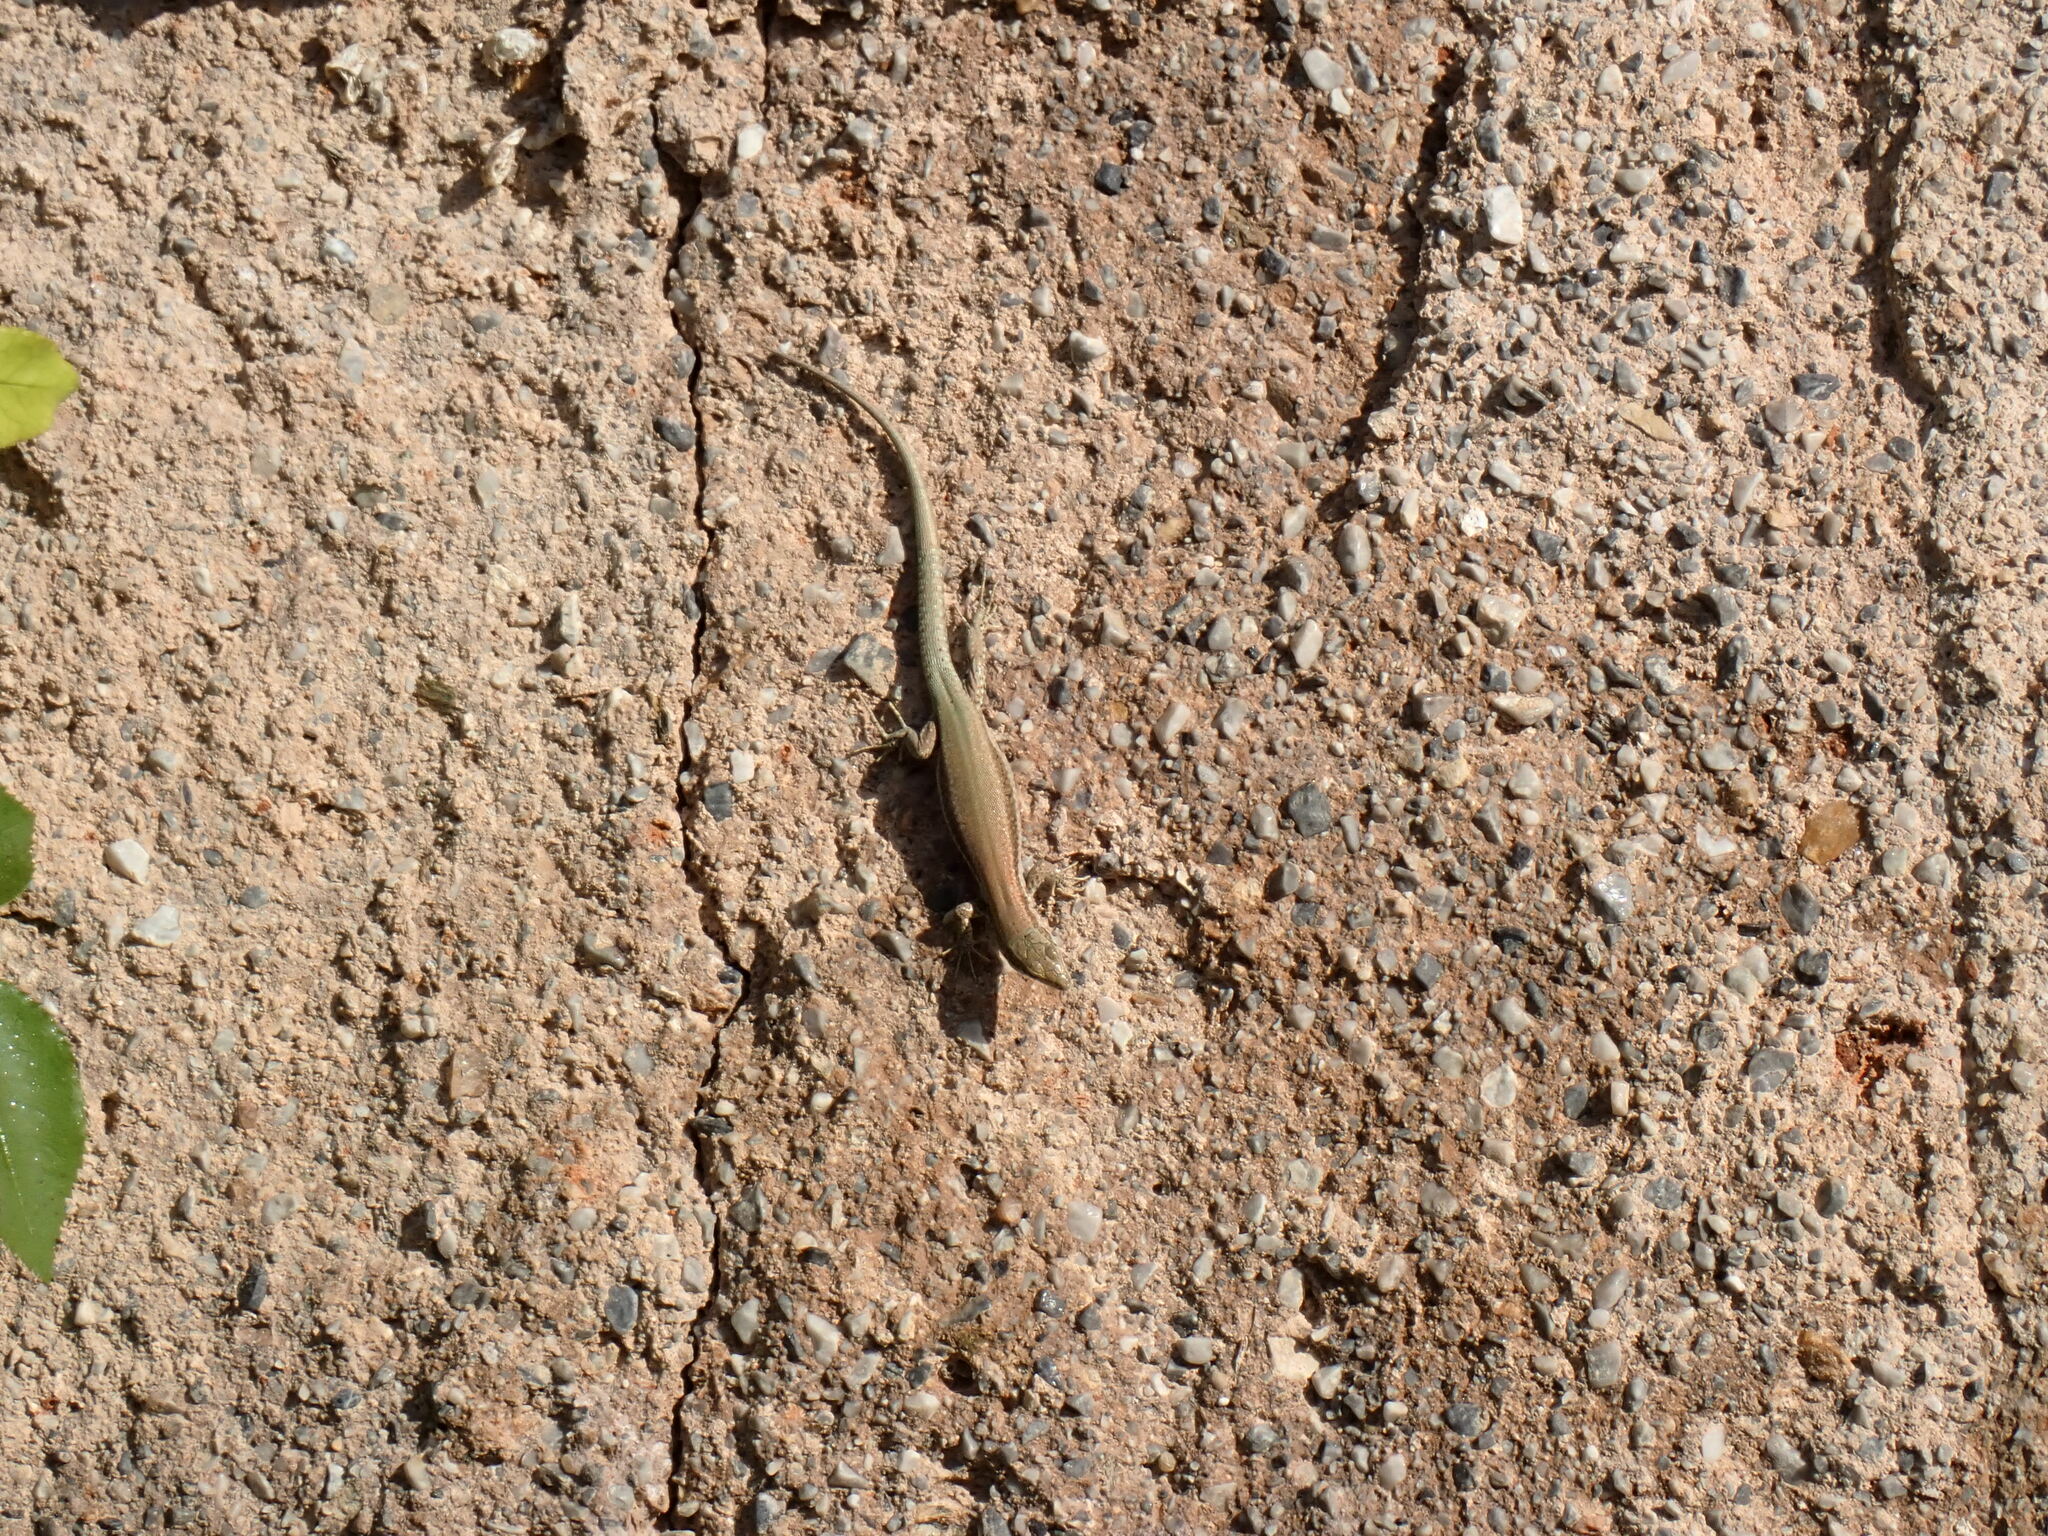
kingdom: Animalia
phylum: Chordata
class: Squamata
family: Lacertidae
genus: Podarcis
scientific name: Podarcis vaucheri
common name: Vaucher's wall lizard
